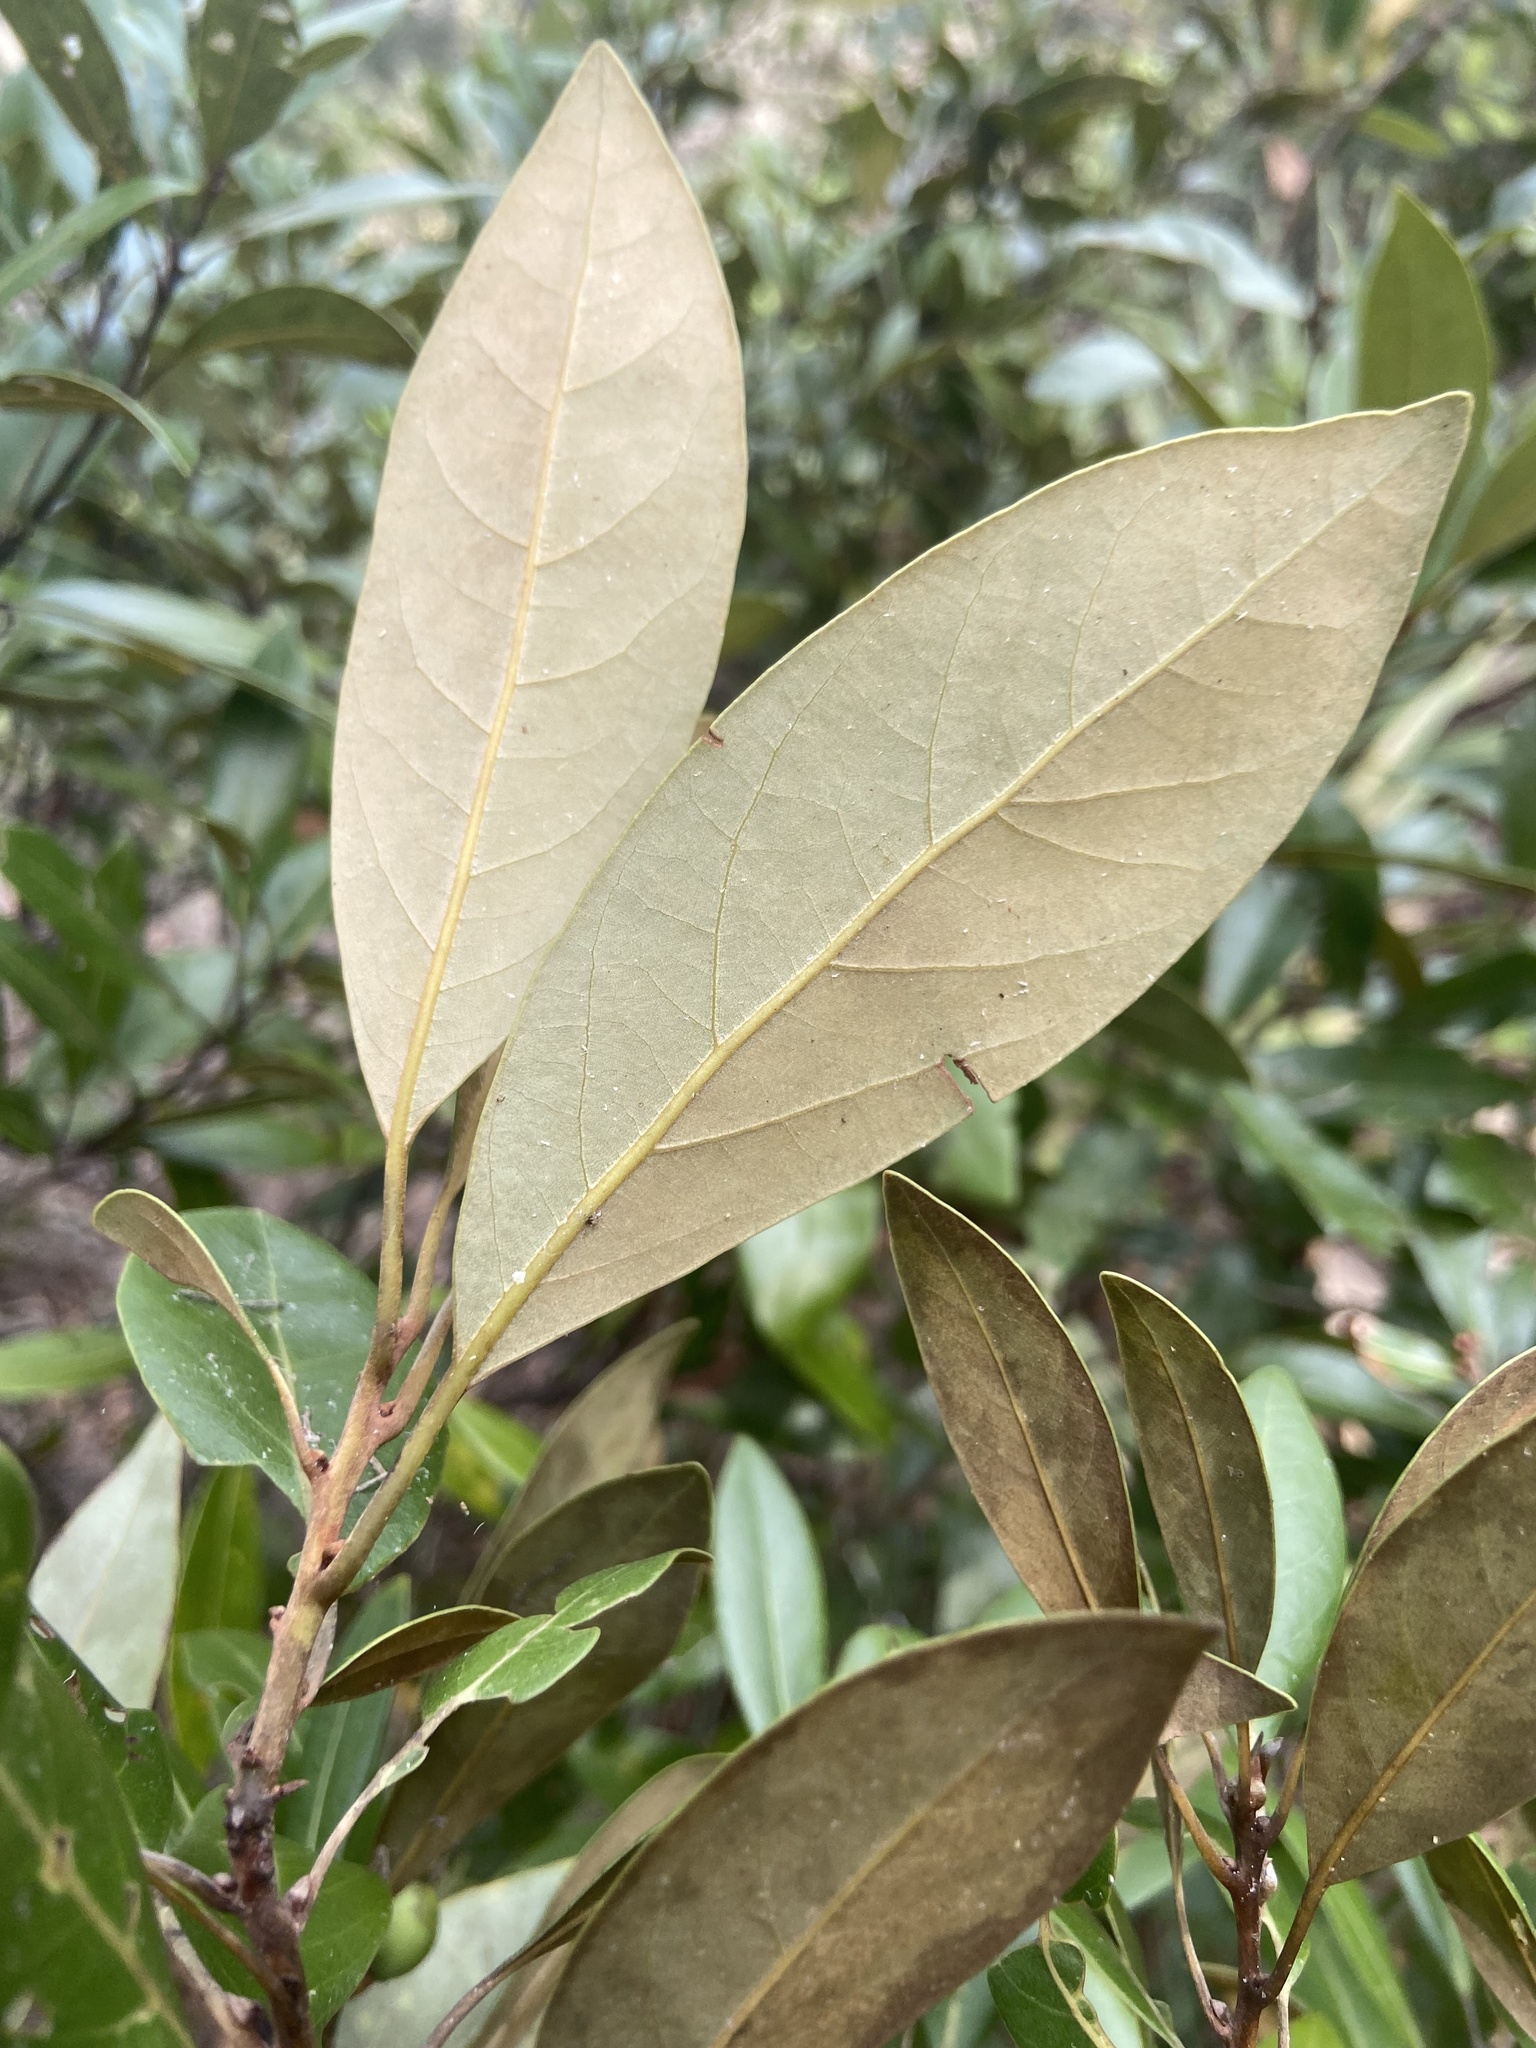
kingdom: Plantae
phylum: Tracheophyta
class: Magnoliopsida
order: Laurales
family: Lauraceae
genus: Persea
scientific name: Persea humilis
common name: Silkbay
